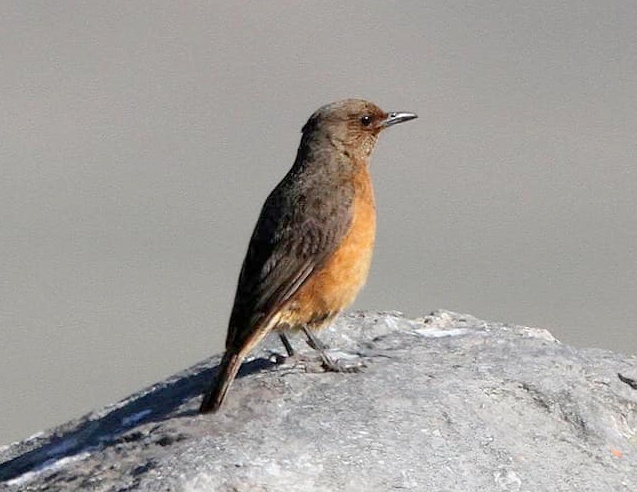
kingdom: Animalia
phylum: Chordata
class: Aves
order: Passeriformes
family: Muscicapidae
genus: Monticola
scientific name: Monticola rupestris
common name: Cape rock thrush
